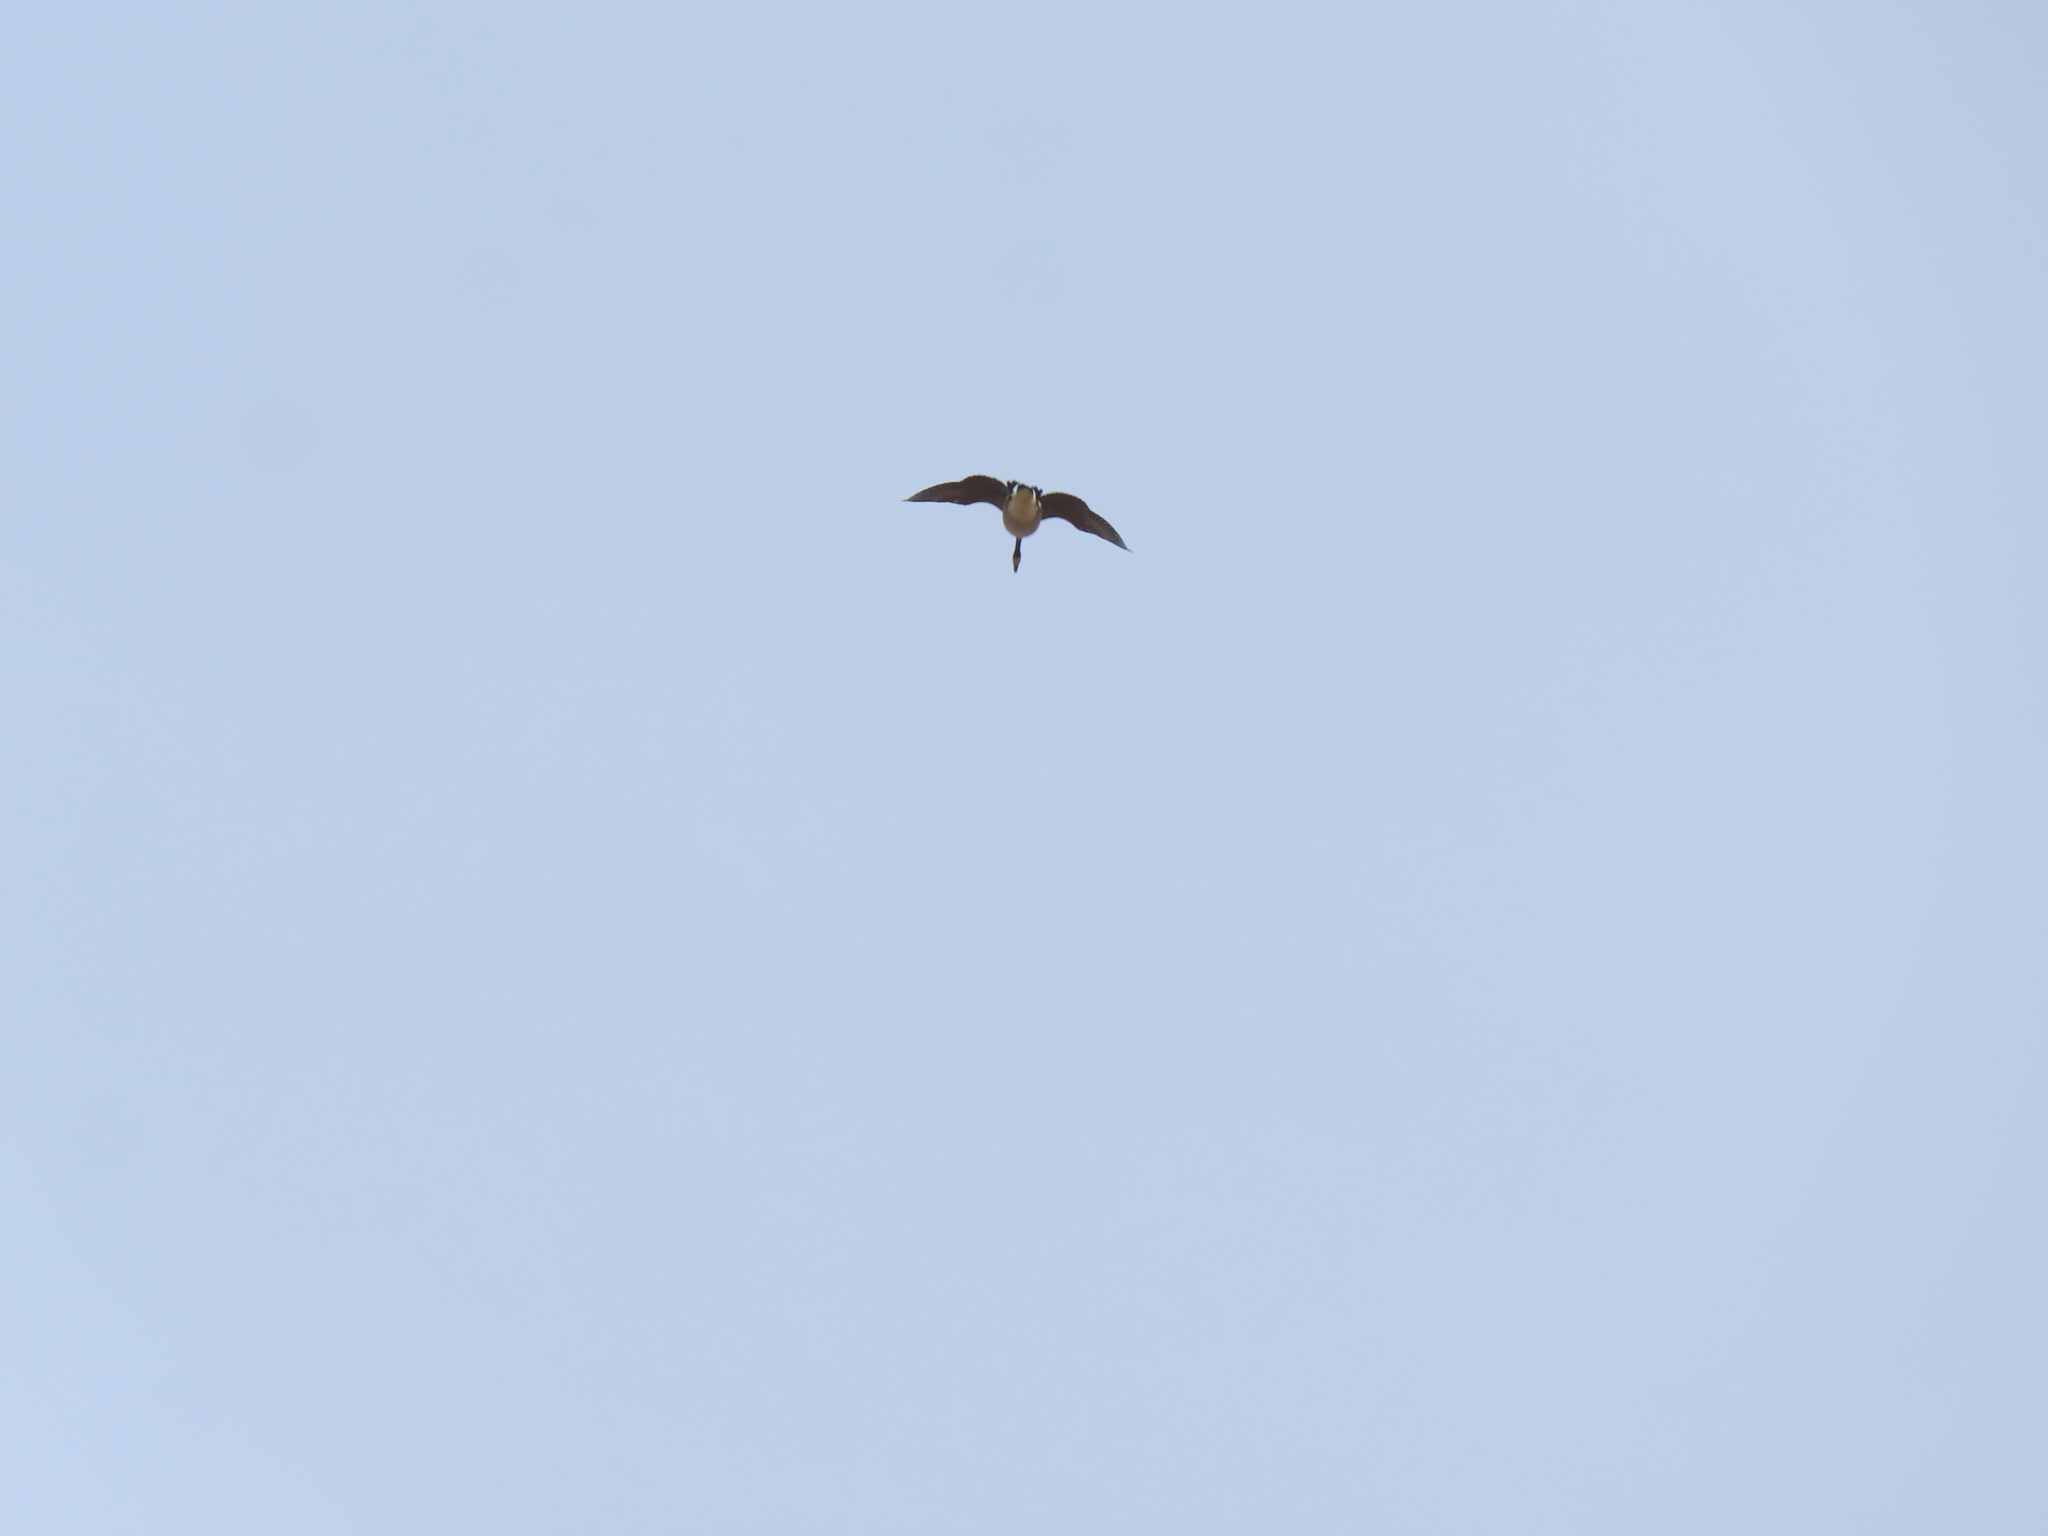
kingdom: Animalia
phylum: Chordata
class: Aves
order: Anseriformes
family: Anatidae
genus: Branta
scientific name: Branta canadensis
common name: Canada goose
